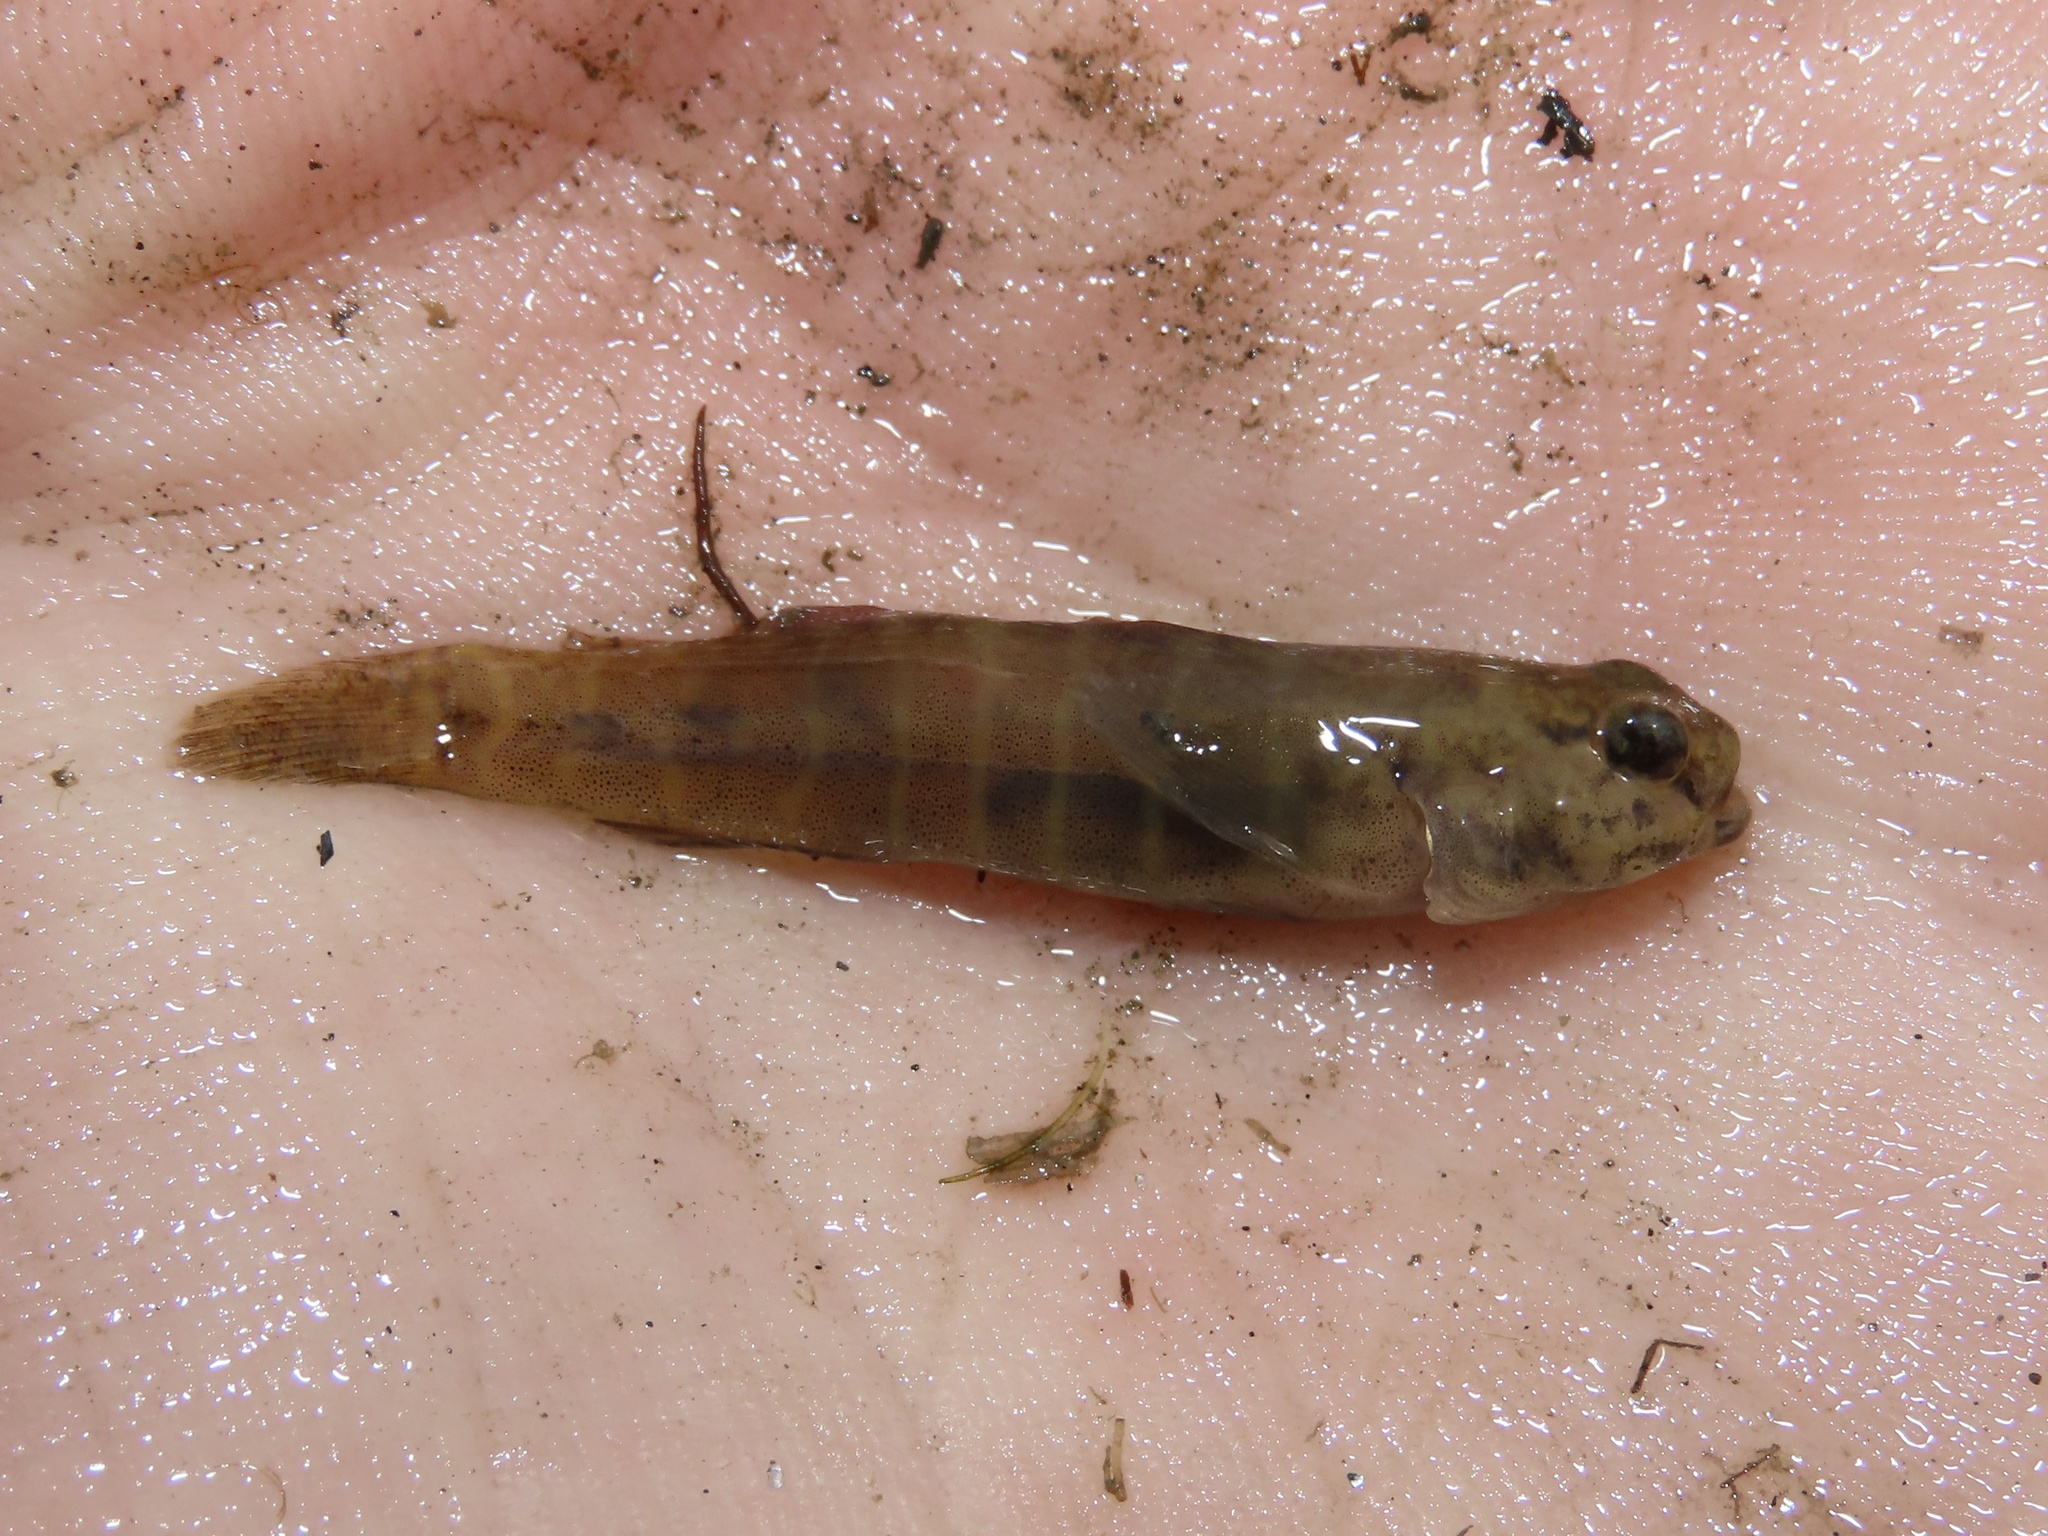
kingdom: Animalia
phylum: Chordata
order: Perciformes
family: Gobiidae
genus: Gobiosoma
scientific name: Gobiosoma bosc
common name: Naked goby
